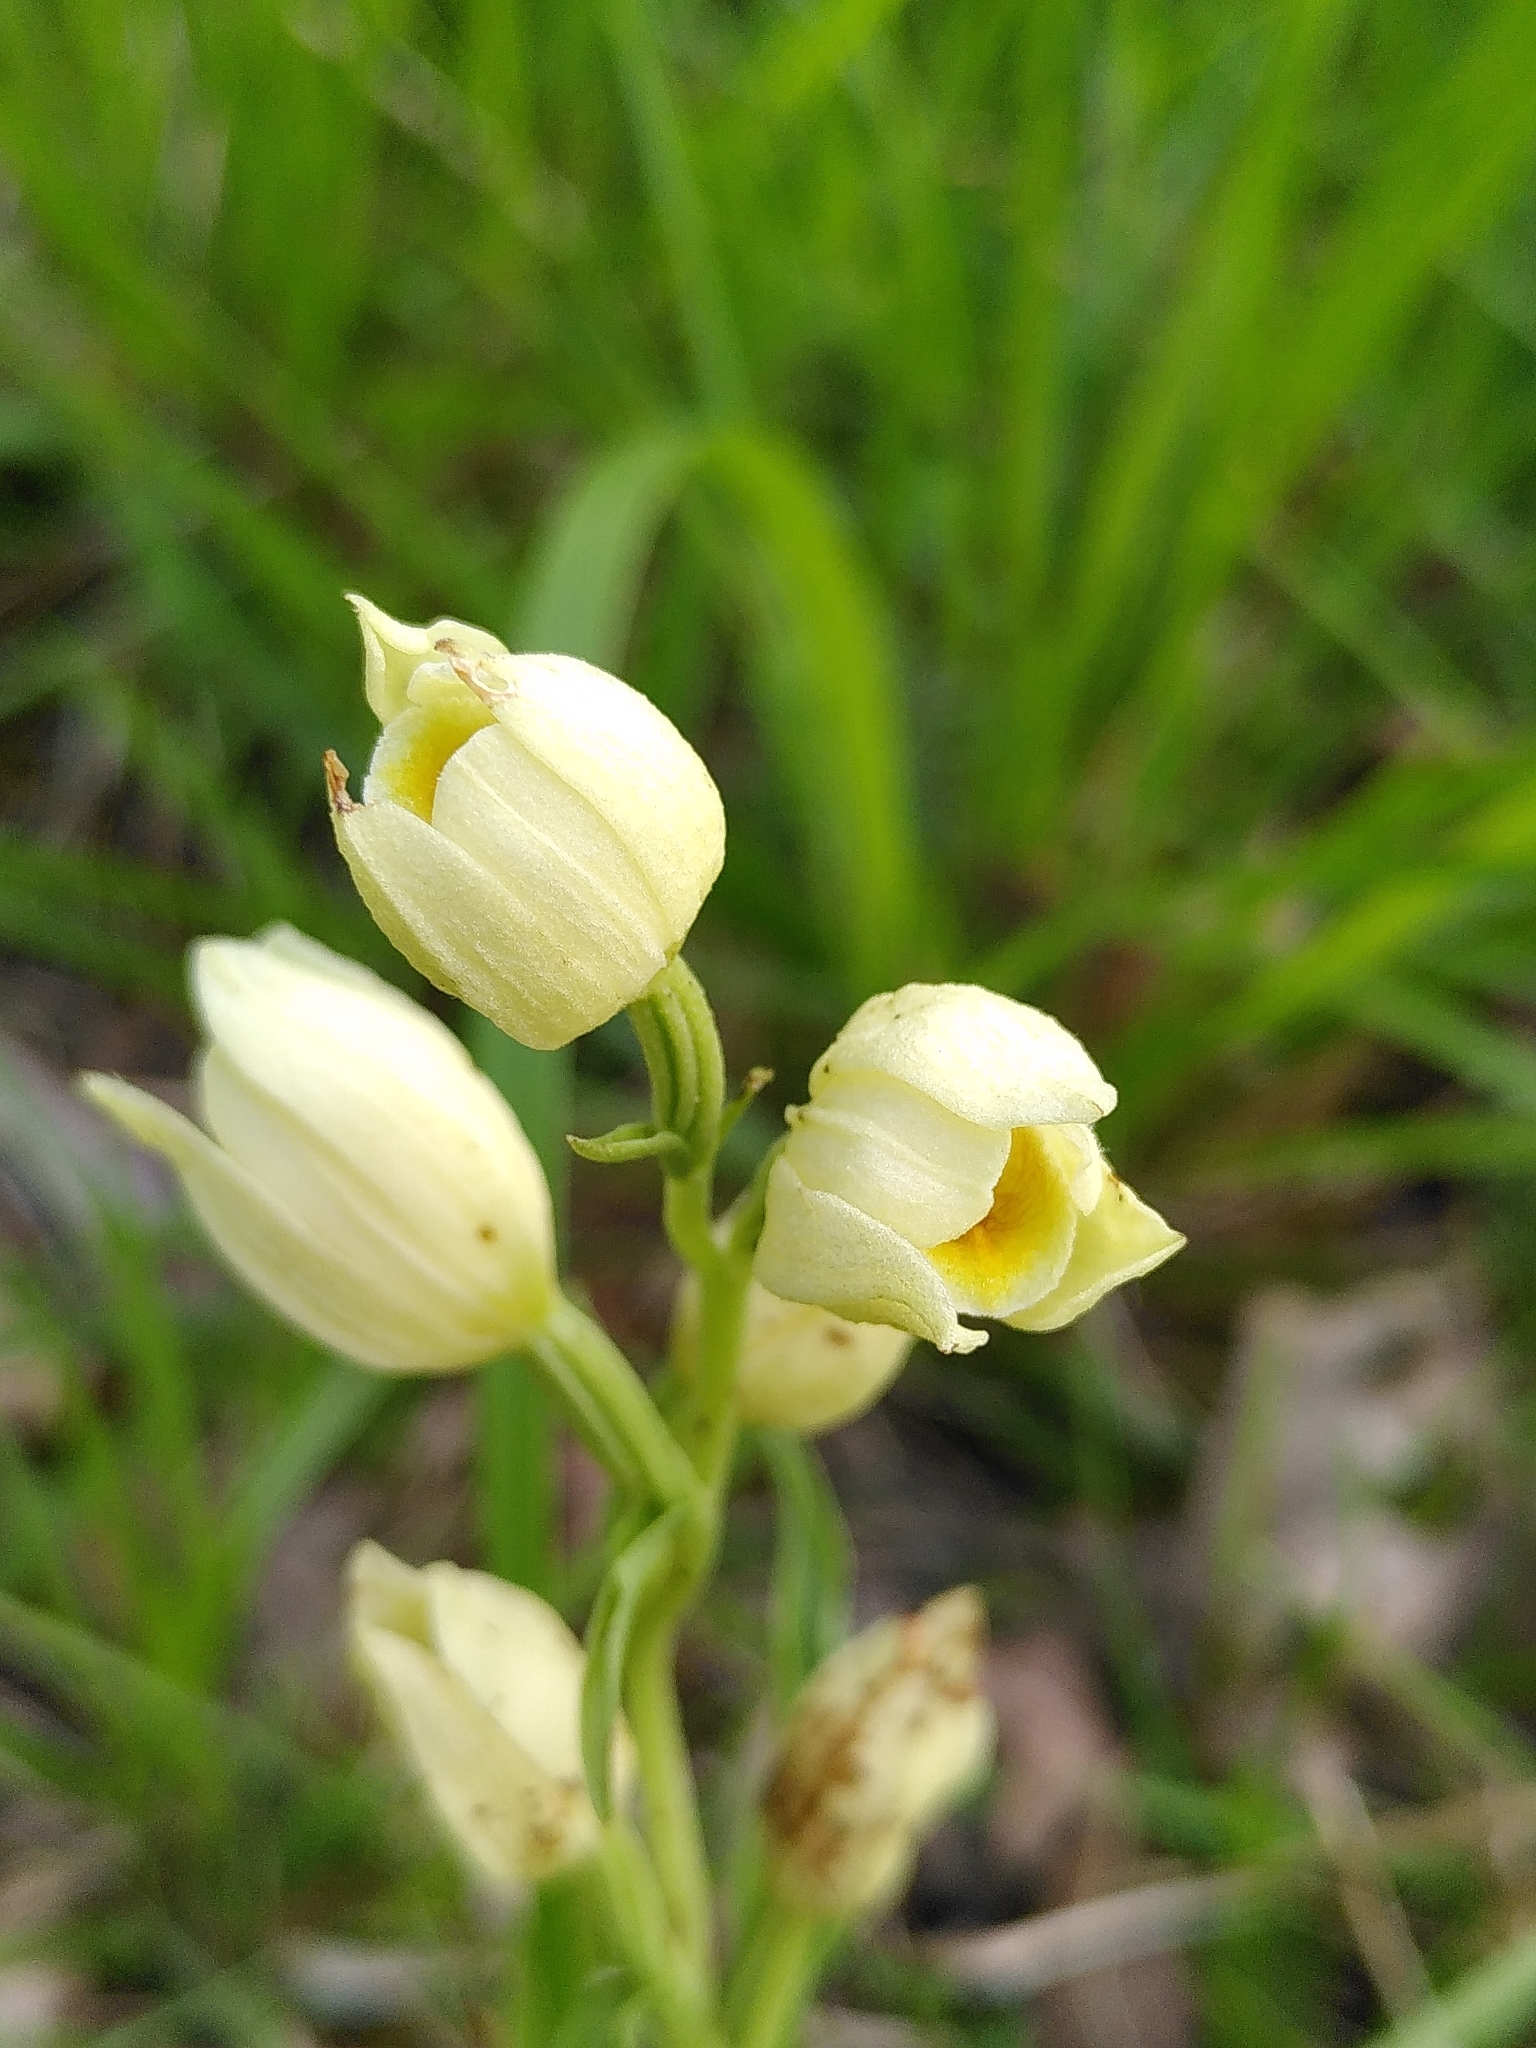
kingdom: Plantae
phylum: Tracheophyta
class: Liliopsida
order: Asparagales
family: Orchidaceae
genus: Cephalanthera
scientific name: Cephalanthera damasonium
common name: White helleborine
